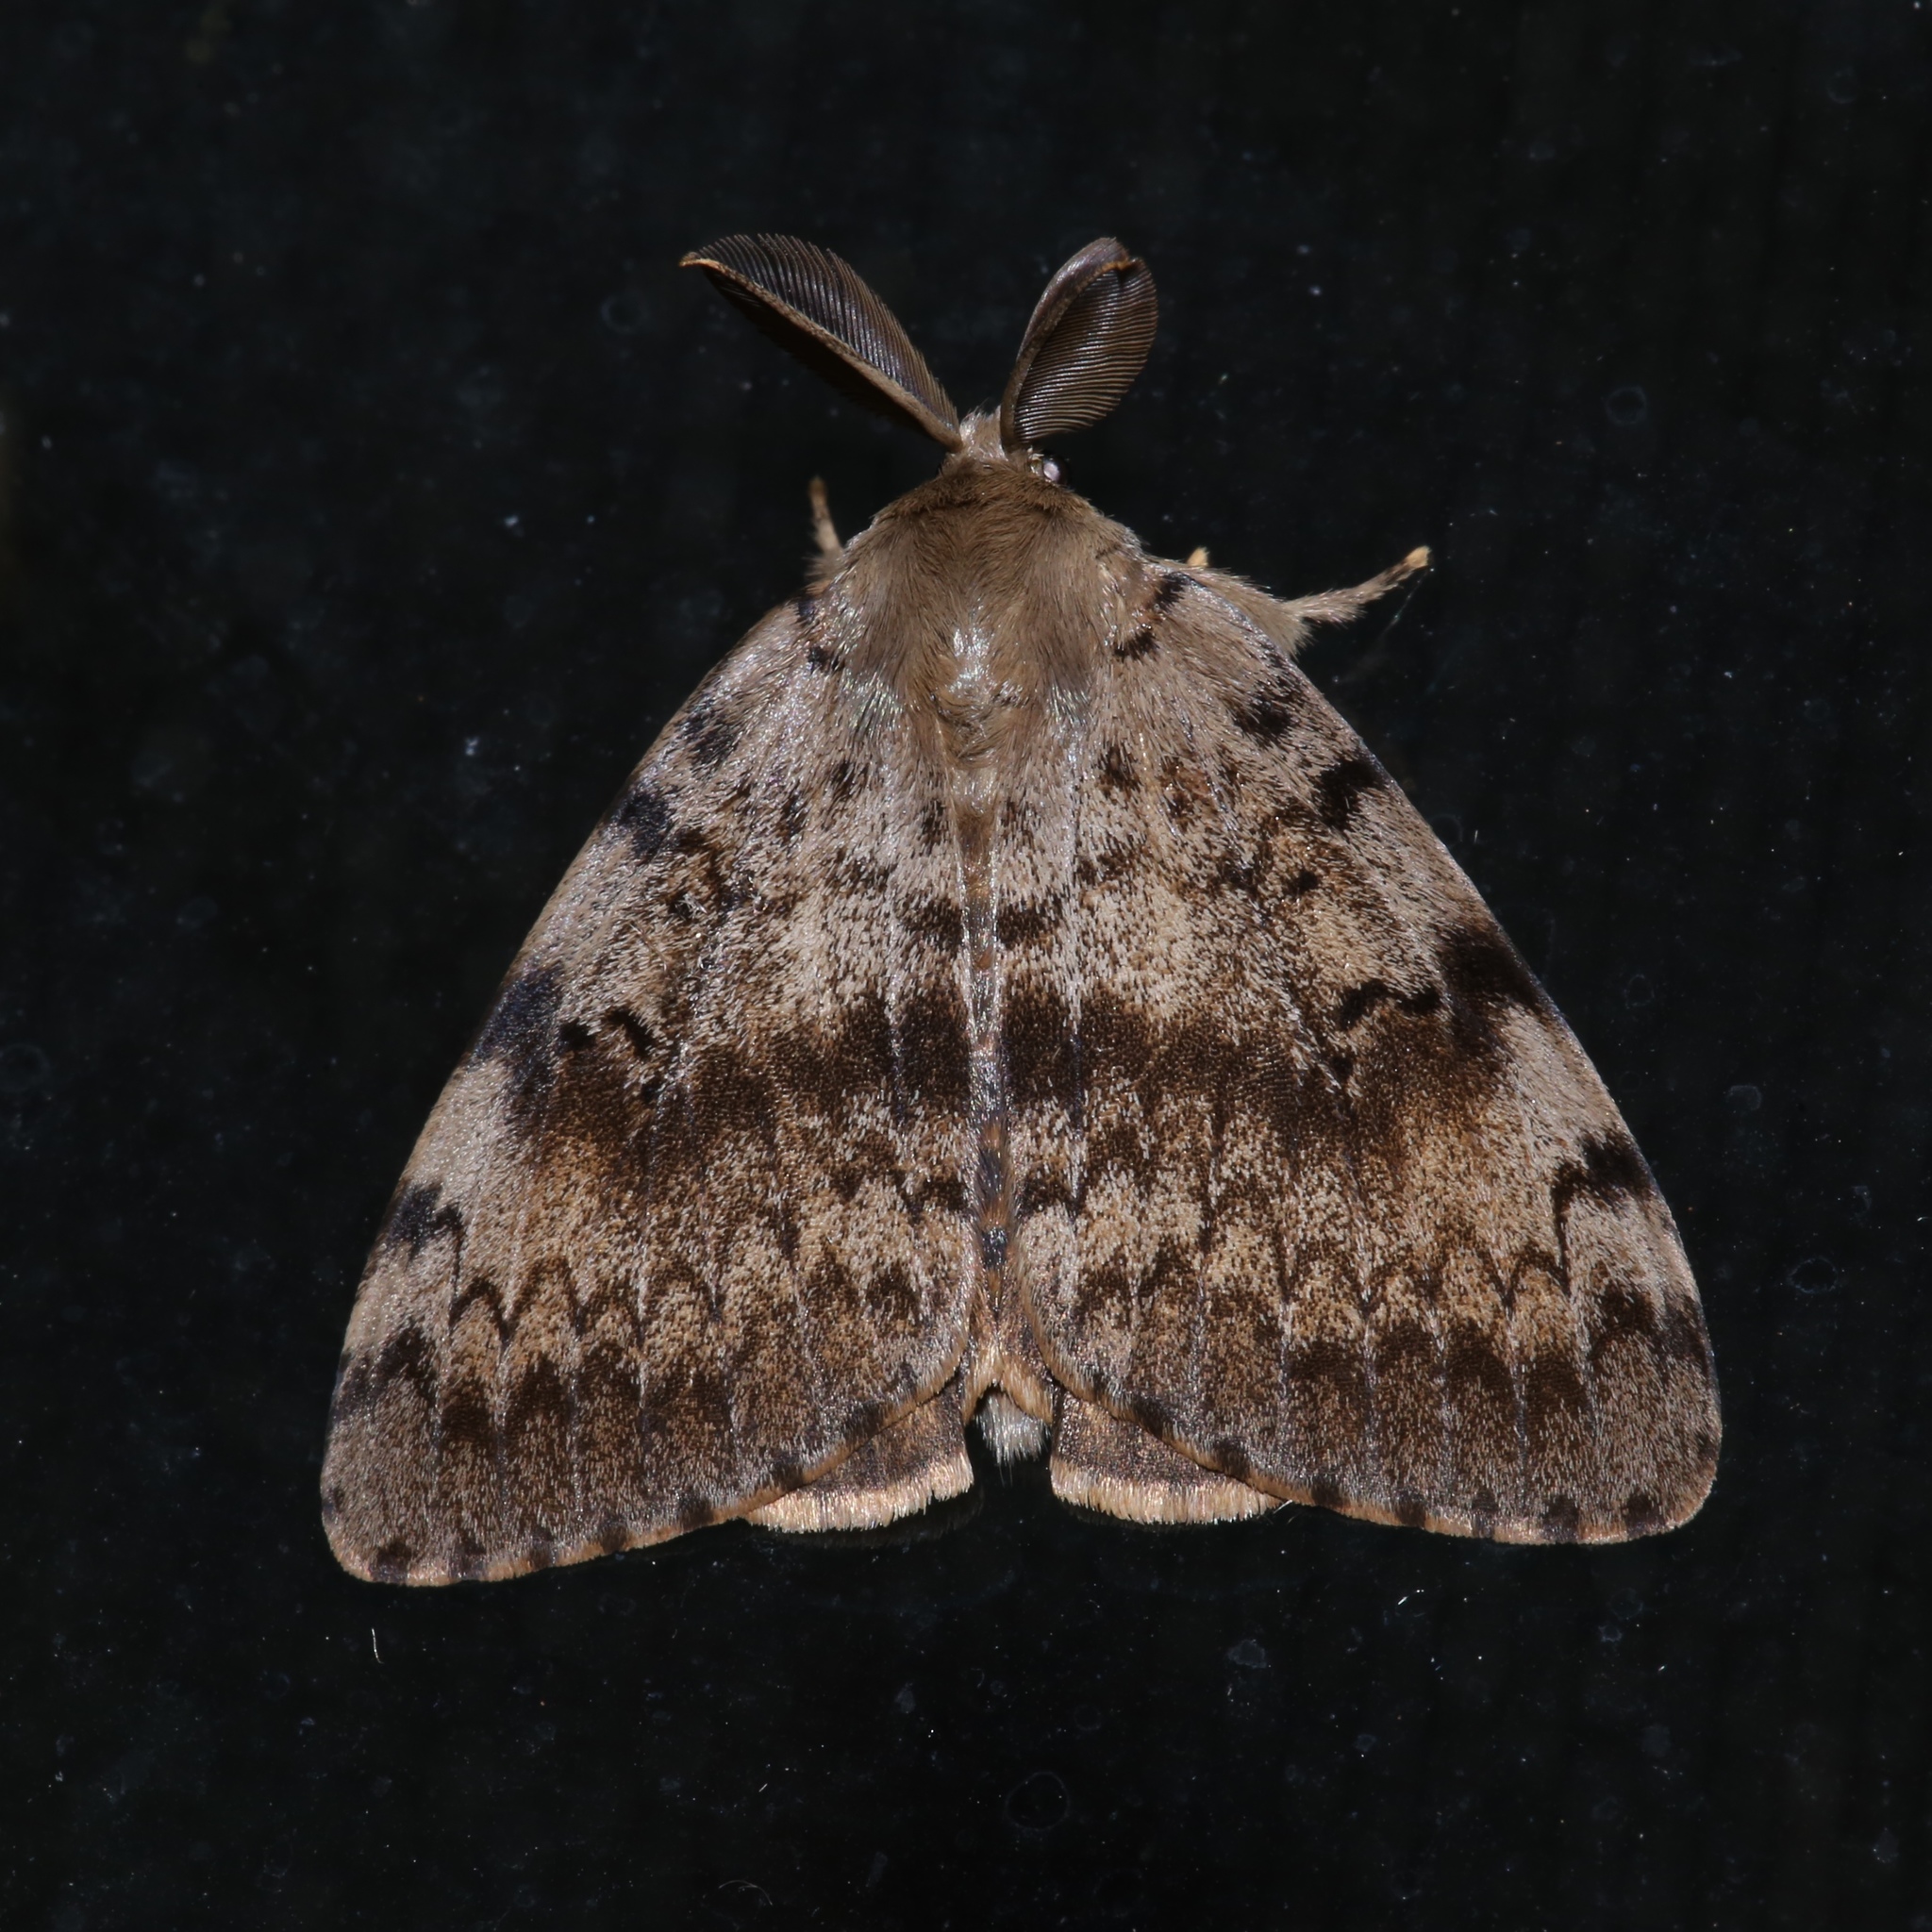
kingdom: Animalia
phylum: Arthropoda
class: Insecta
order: Lepidoptera
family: Erebidae
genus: Lymantria
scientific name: Lymantria dispar
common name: Gypsy moth
